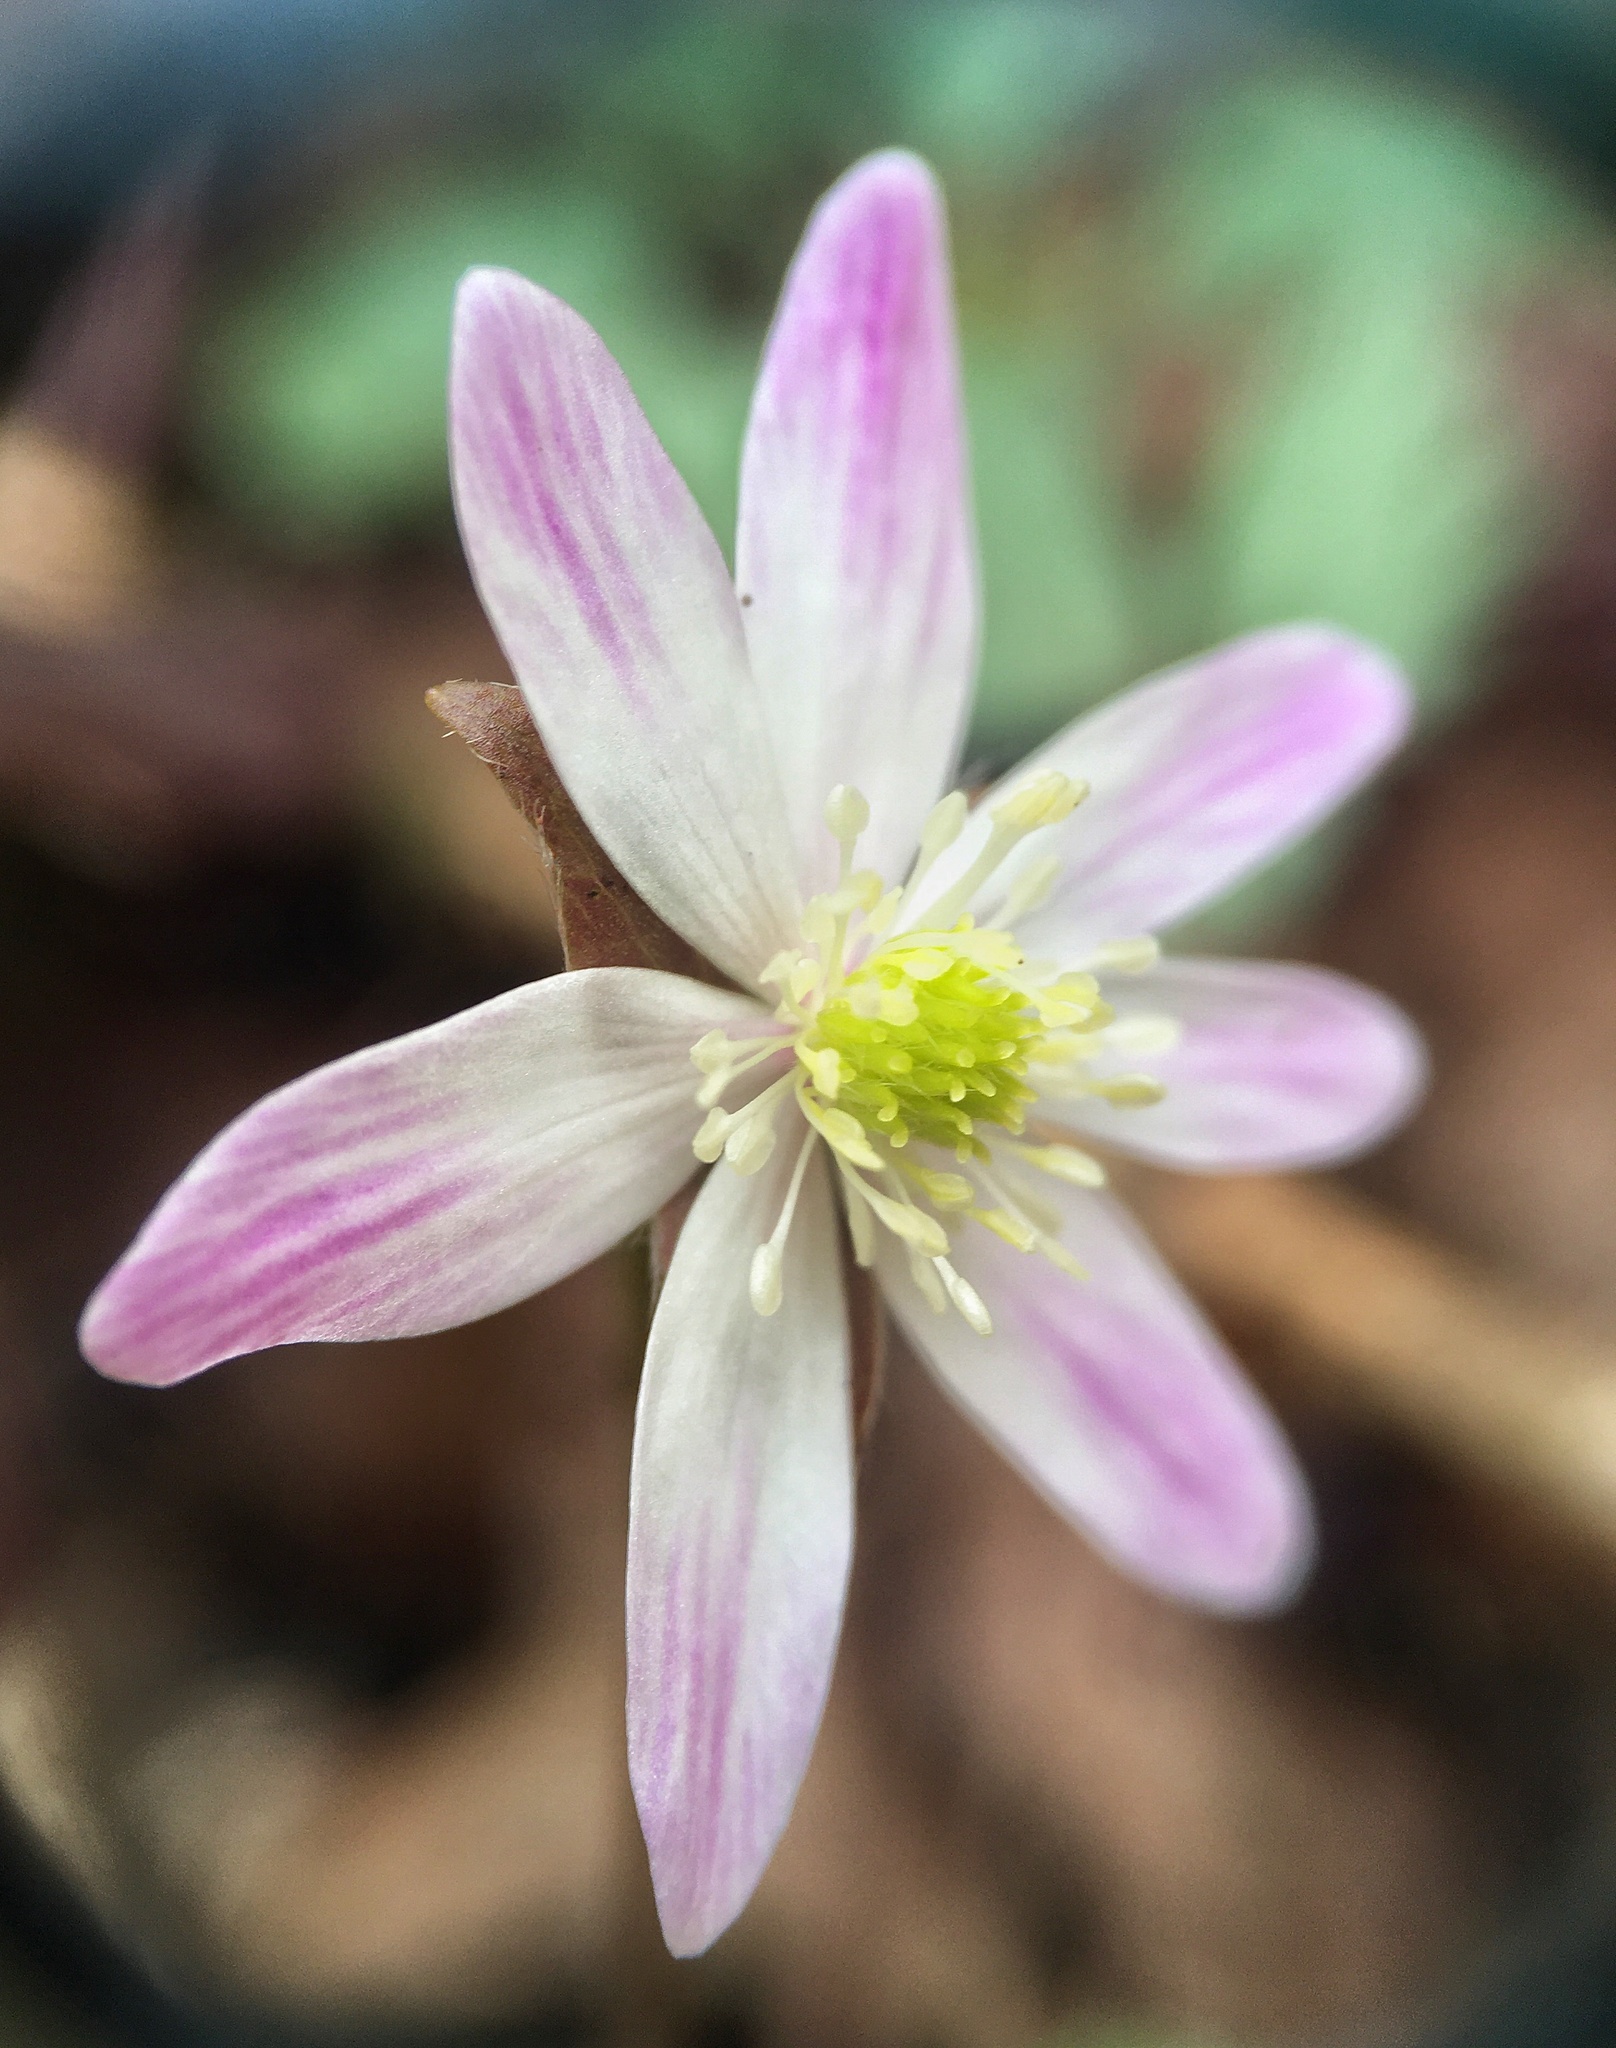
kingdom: Plantae
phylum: Tracheophyta
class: Magnoliopsida
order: Ranunculales
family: Ranunculaceae
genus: Hepatica
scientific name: Hepatica acutiloba
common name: Sharp-lobed hepatica
